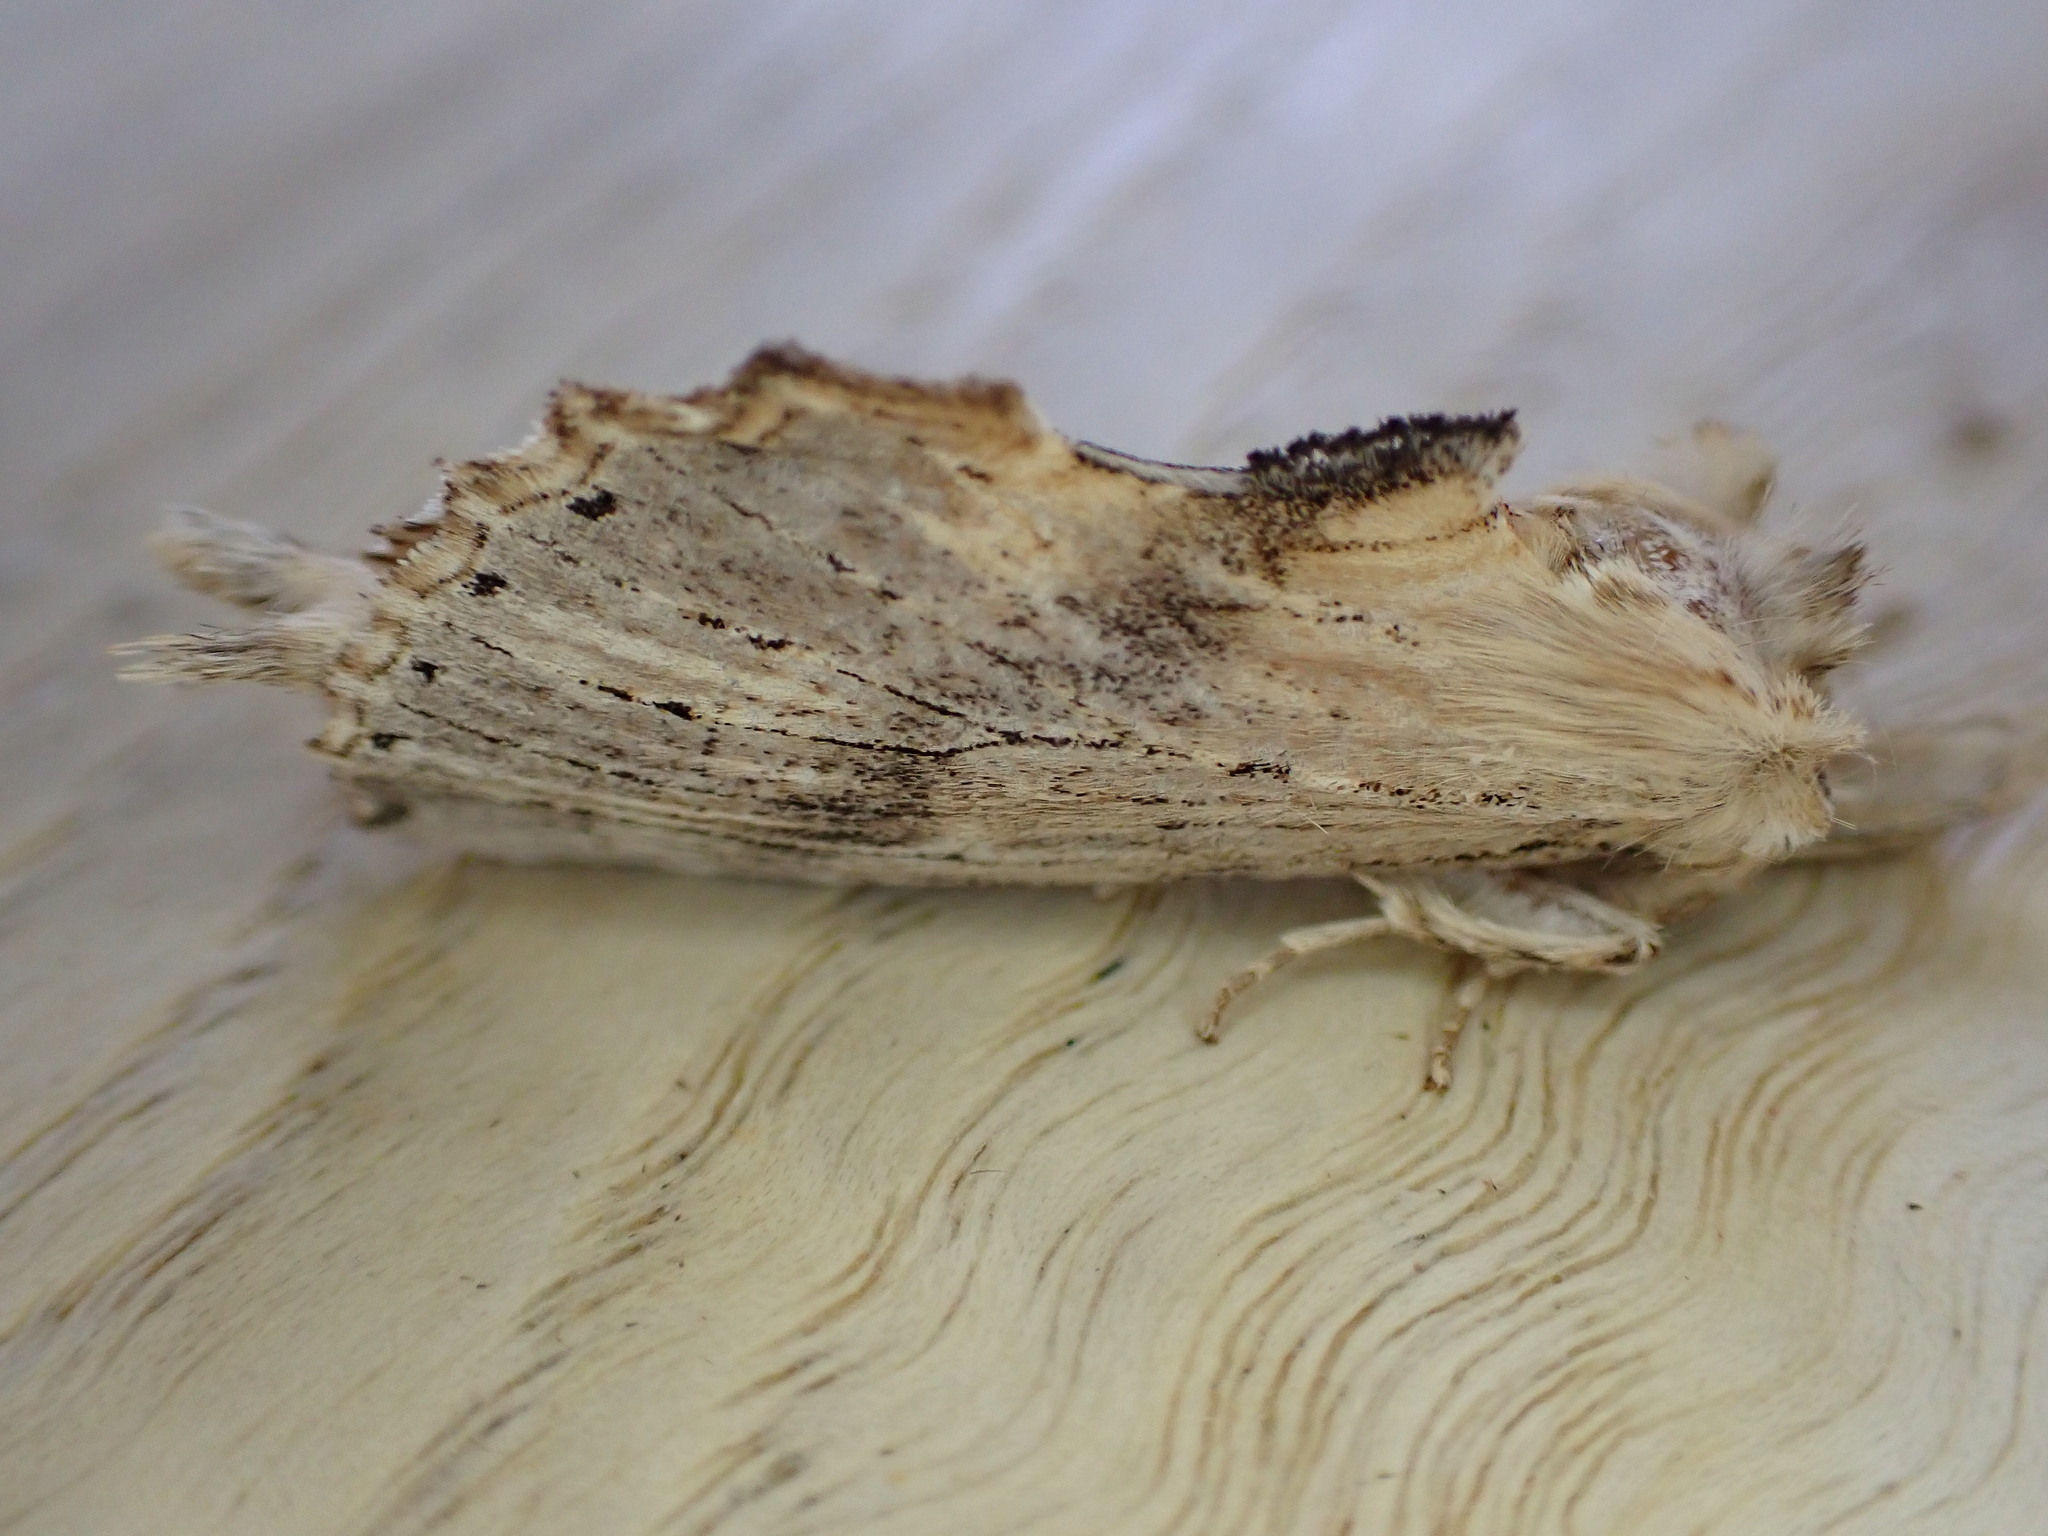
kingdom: Animalia
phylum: Arthropoda
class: Insecta
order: Lepidoptera
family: Notodontidae
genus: Pterostoma
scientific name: Pterostoma palpina
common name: Pale prominent
